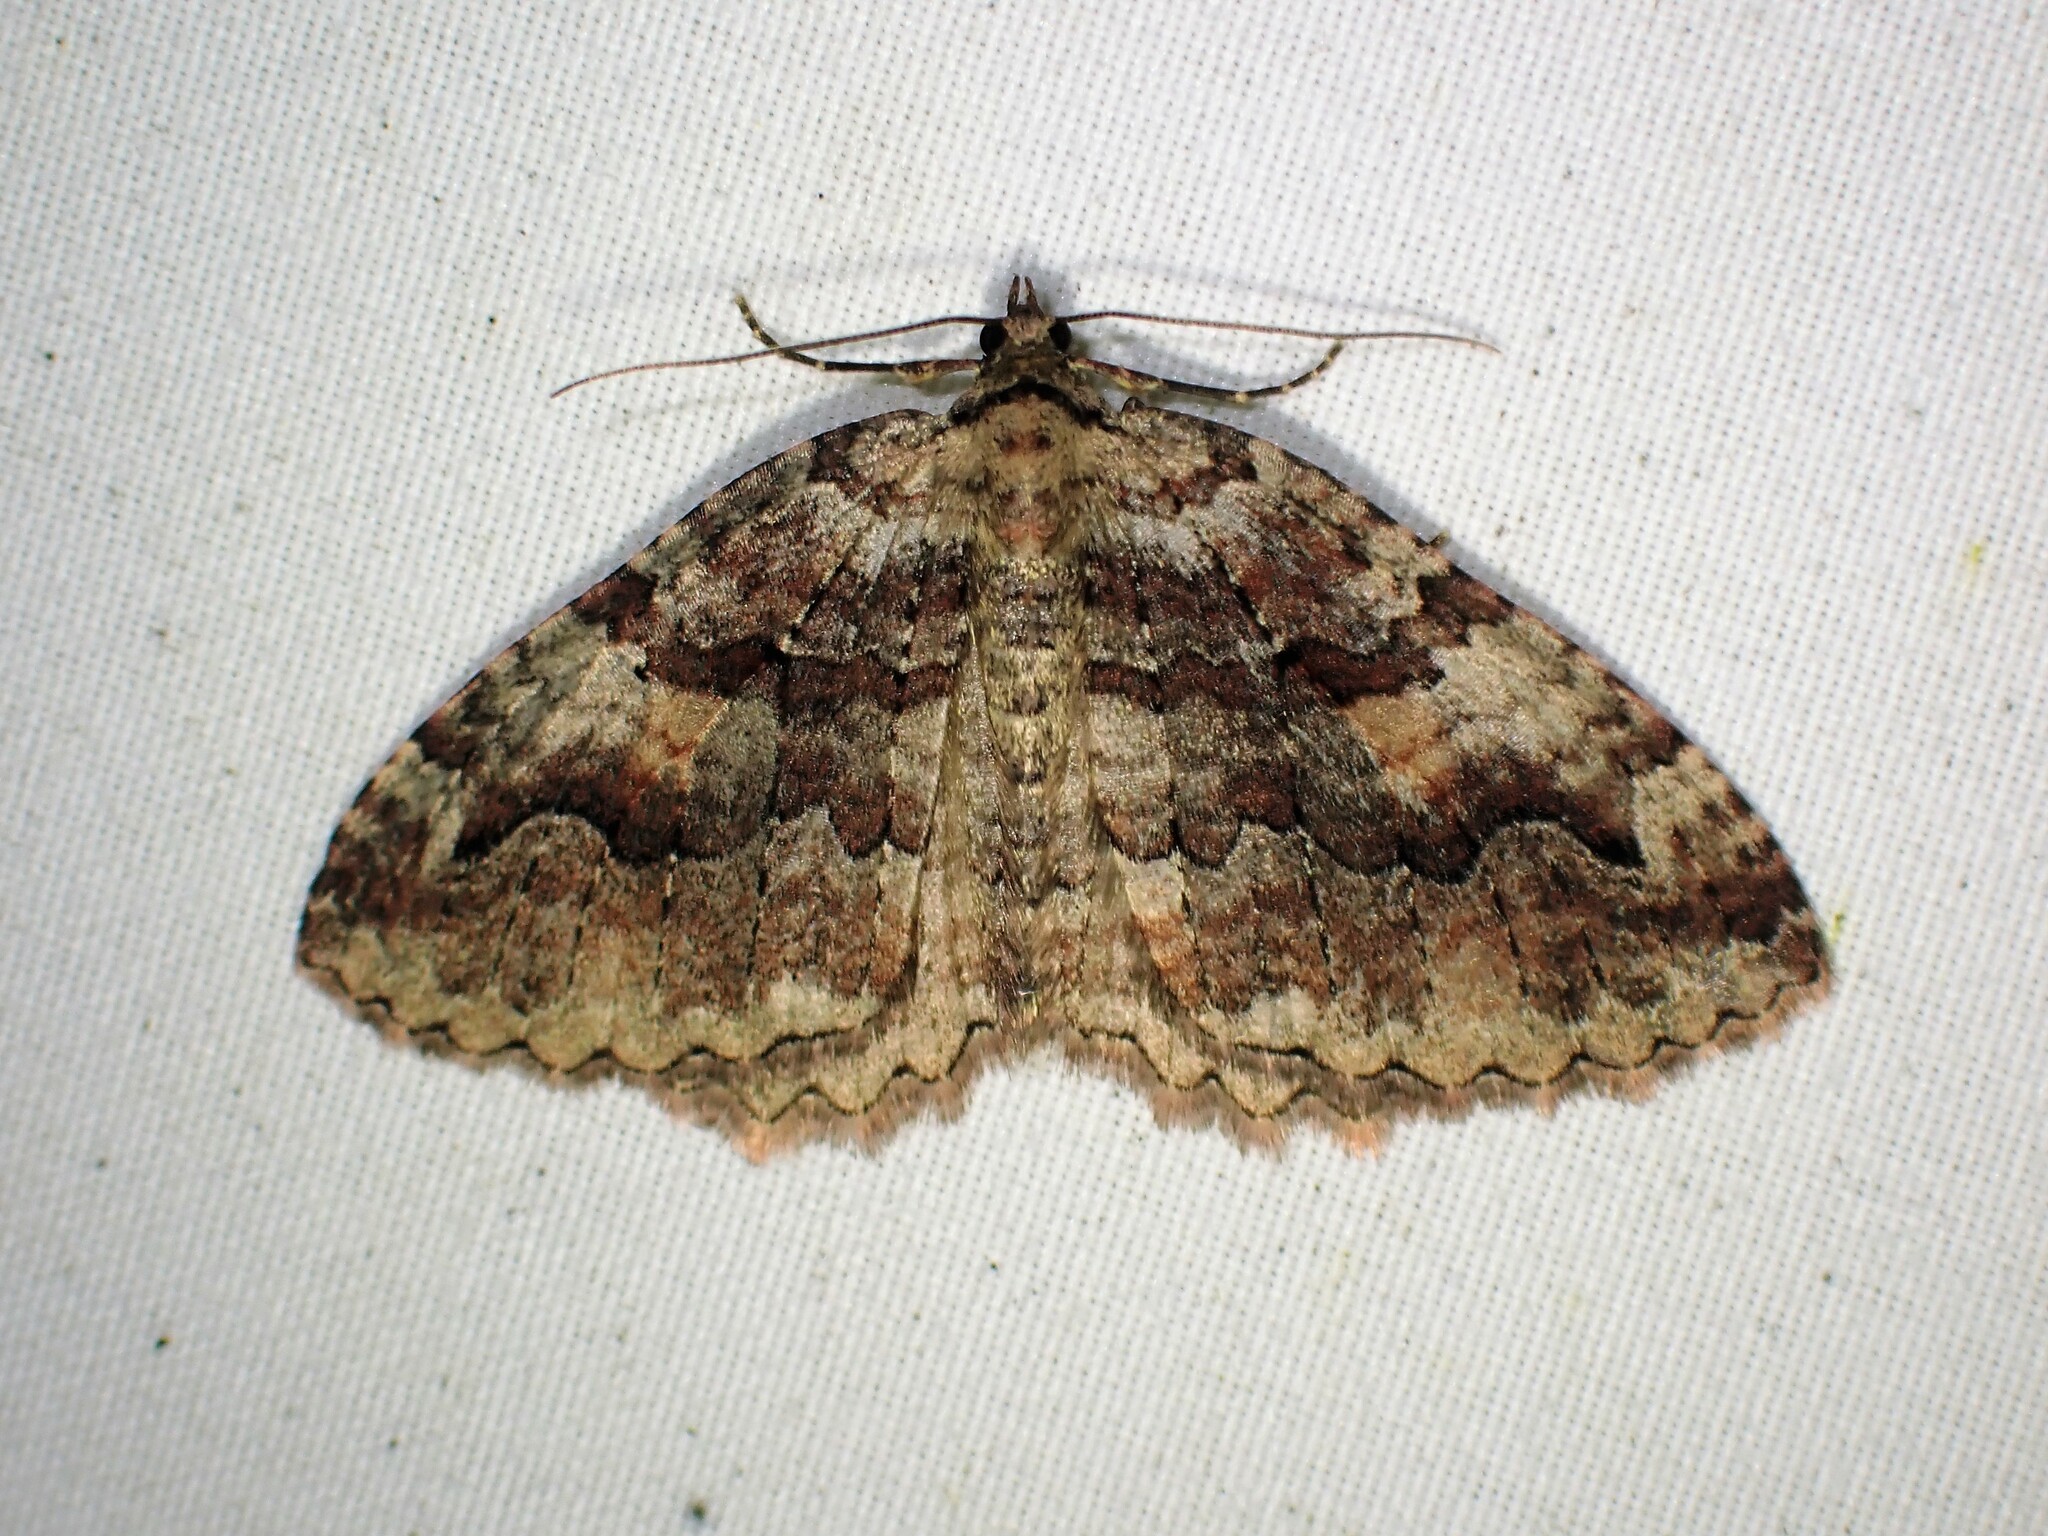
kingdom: Animalia
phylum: Arthropoda
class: Insecta
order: Lepidoptera
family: Geometridae
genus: Triphosa
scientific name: Triphosa haesitata
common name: Tissue moth
